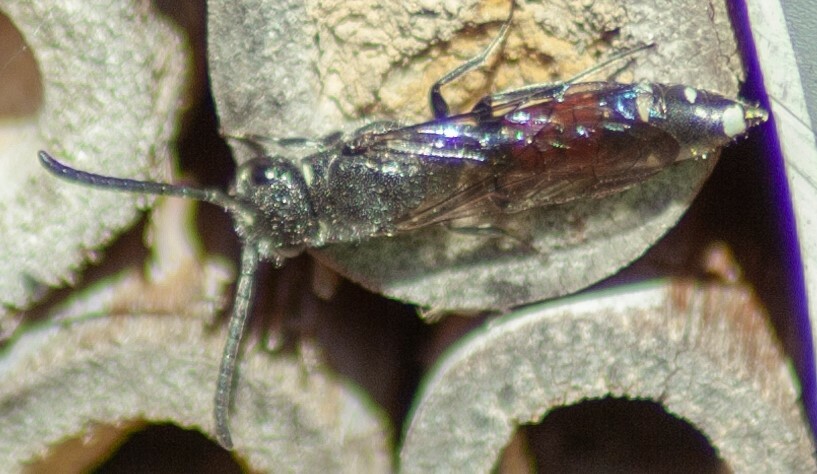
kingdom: Animalia
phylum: Arthropoda
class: Insecta
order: Hymenoptera
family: Sapygidae
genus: Sapyga
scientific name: Sapyga quinquepunctata
